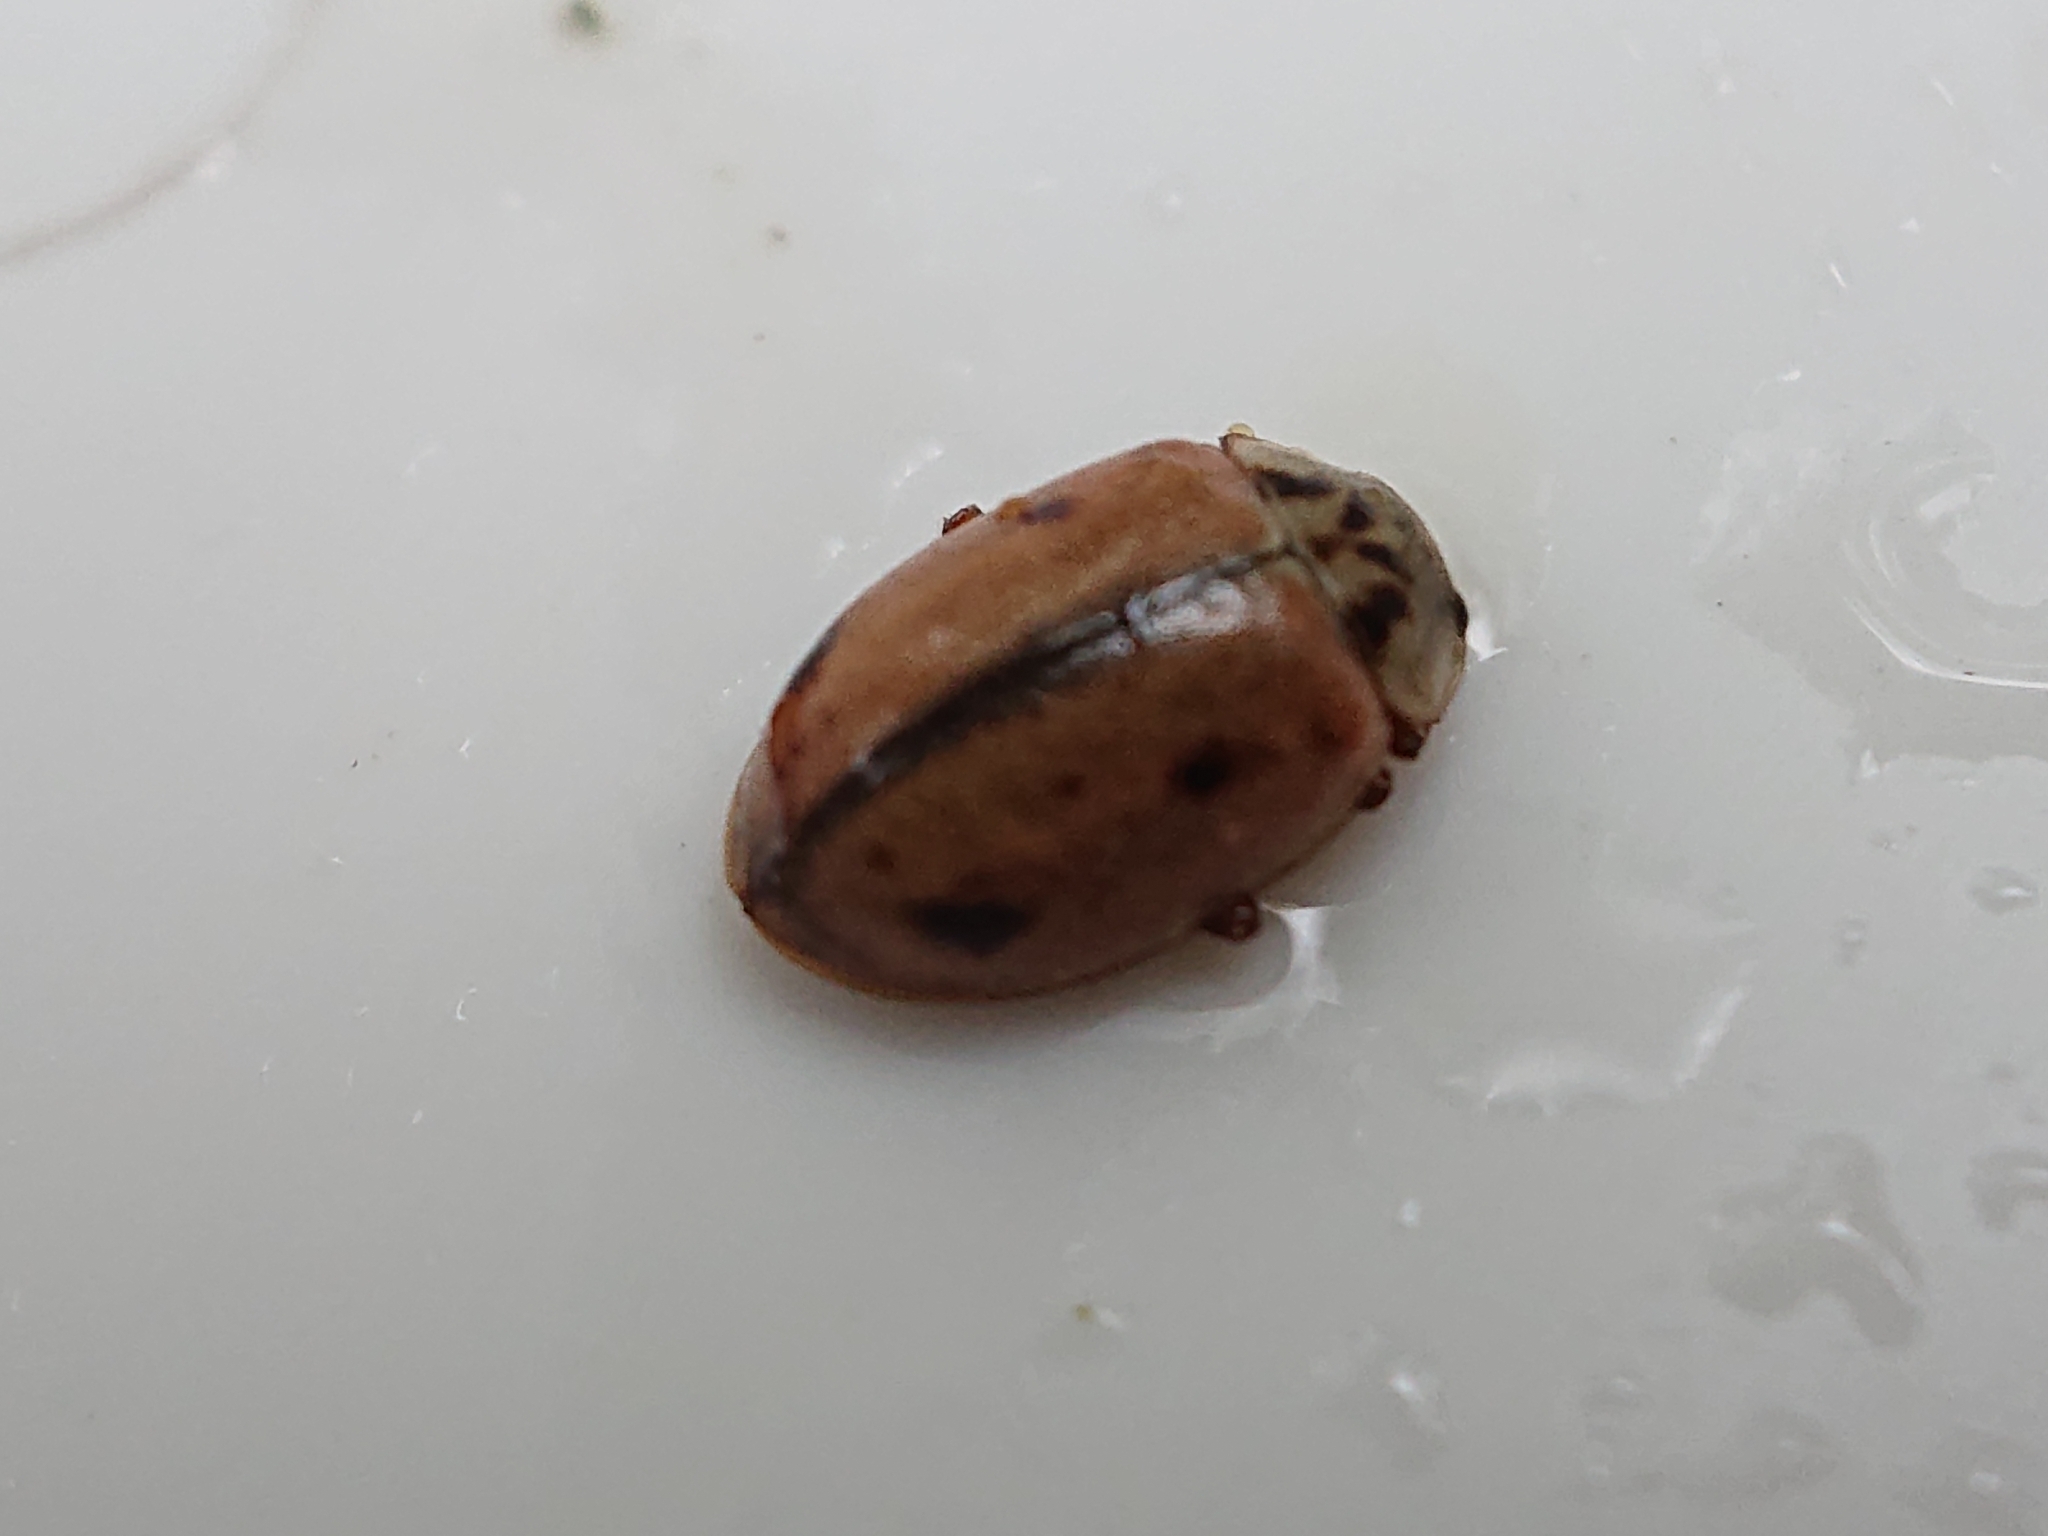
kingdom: Animalia
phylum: Arthropoda
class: Insecta
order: Coleoptera
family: Coccinellidae
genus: Aphidecta
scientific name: Aphidecta obliterata
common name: Larch ladybird
